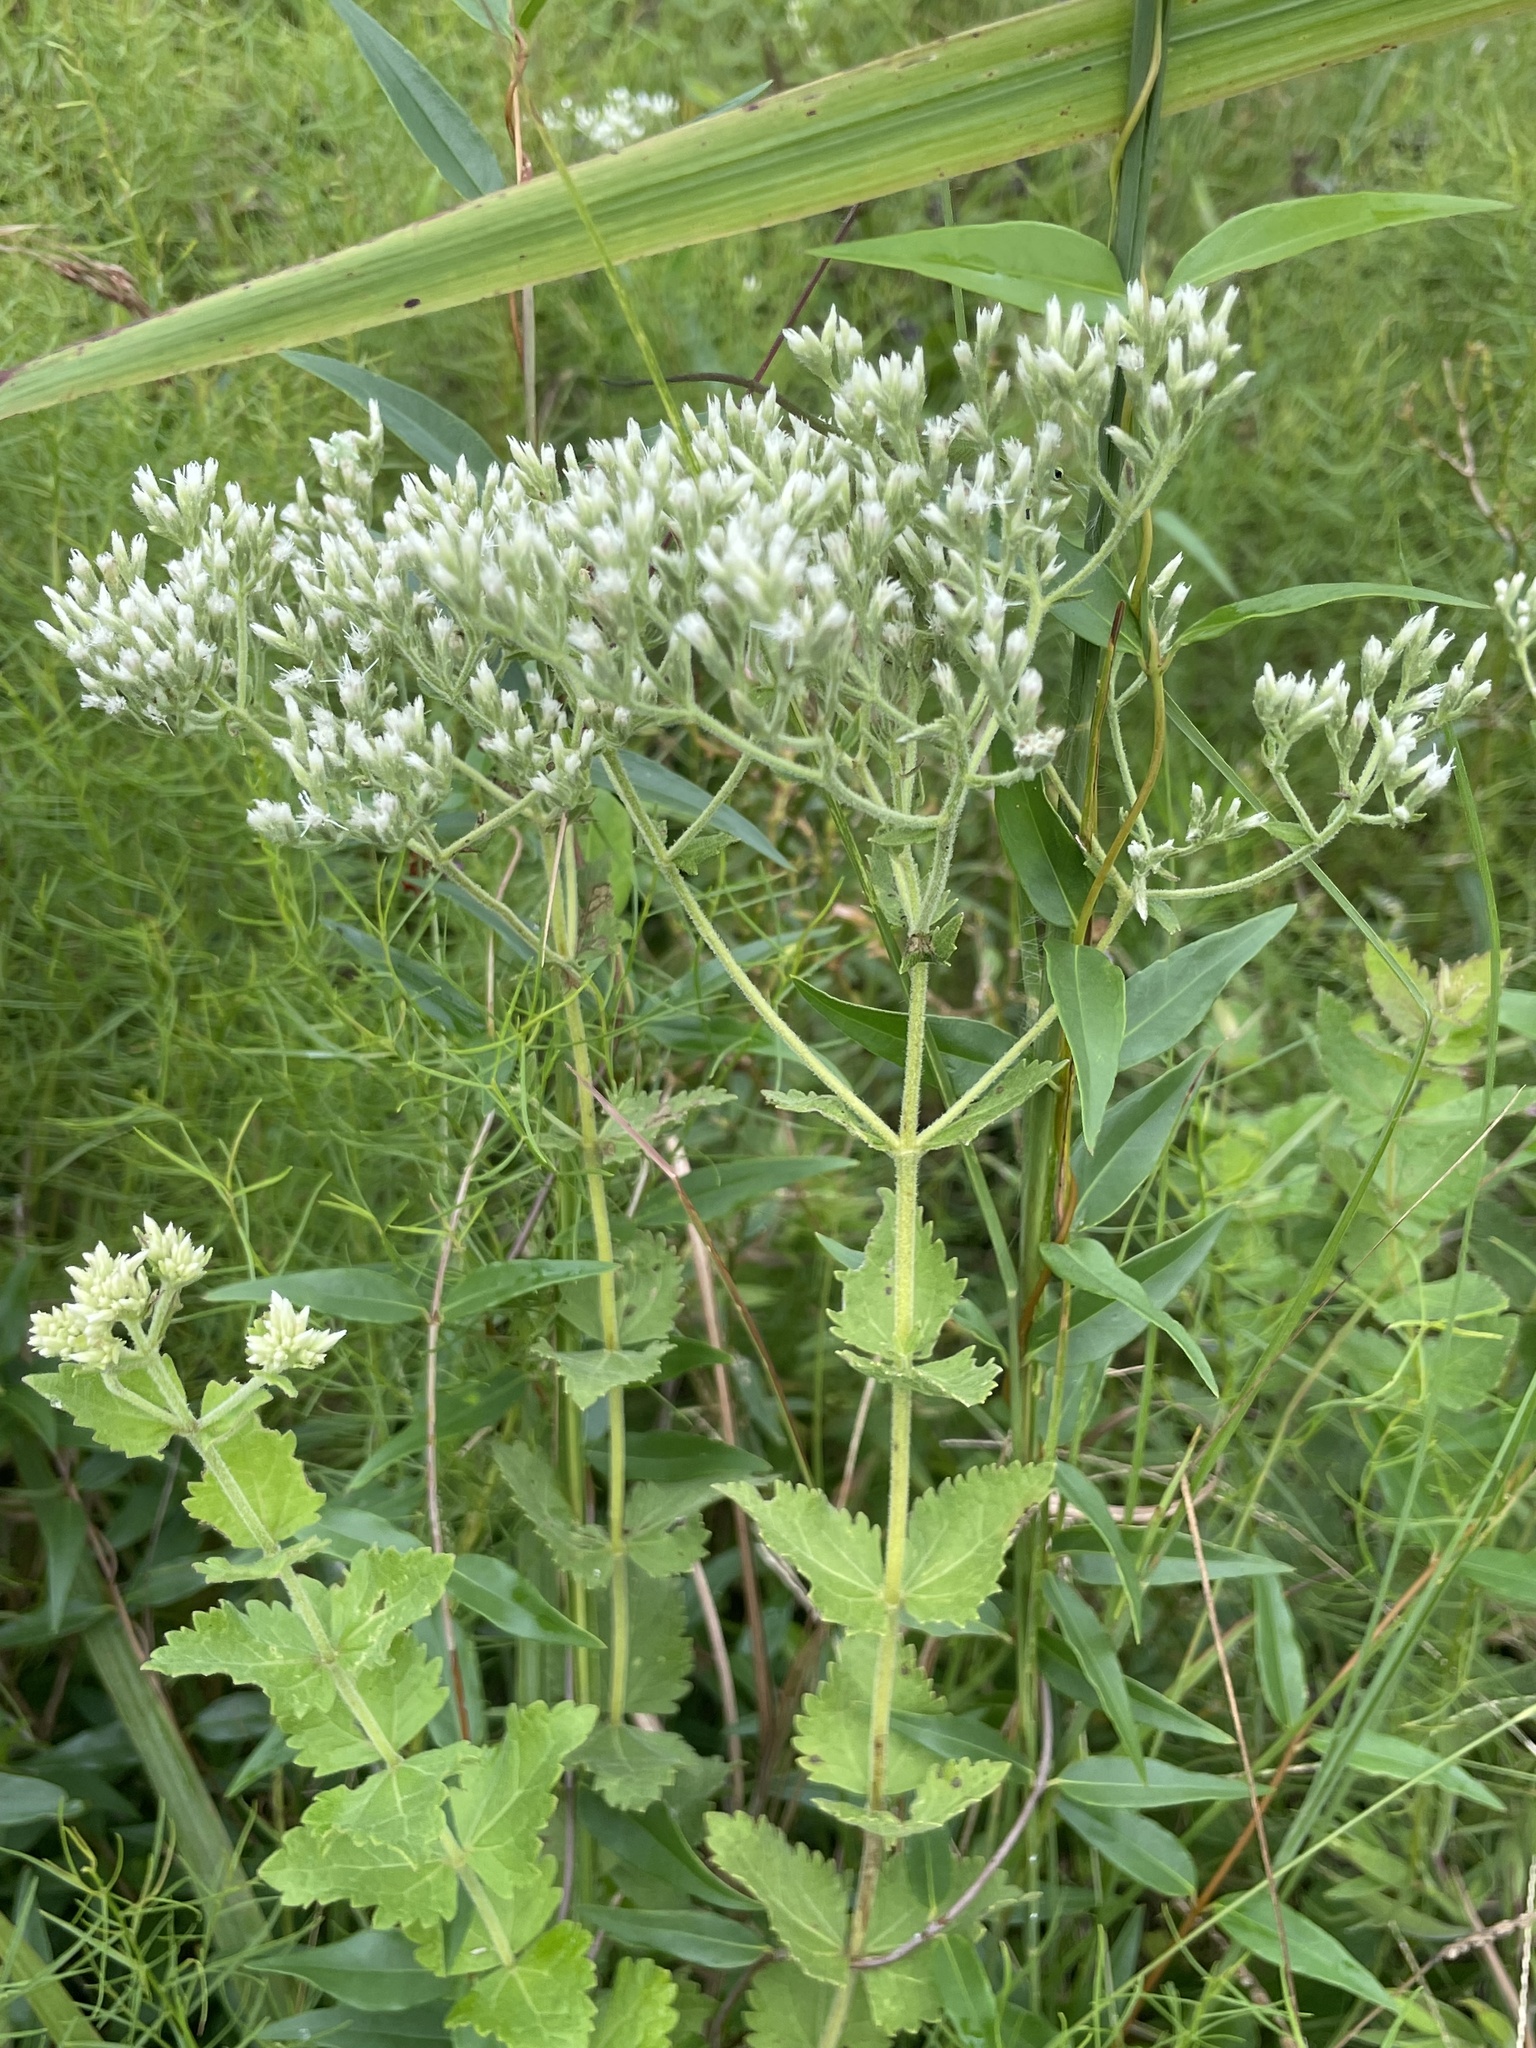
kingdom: Plantae
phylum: Tracheophyta
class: Magnoliopsida
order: Asterales
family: Asteraceae
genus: Eupatorium
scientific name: Eupatorium rotundifolium
